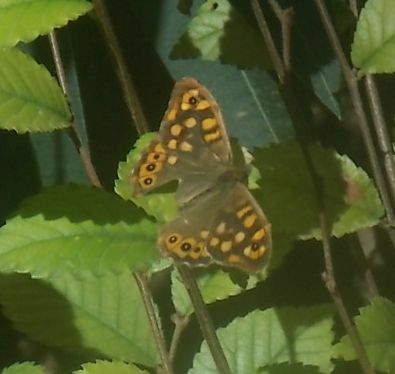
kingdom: Animalia
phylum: Arthropoda
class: Insecta
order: Lepidoptera
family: Nymphalidae
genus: Pararge
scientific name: Pararge aegeria
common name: Speckled wood
